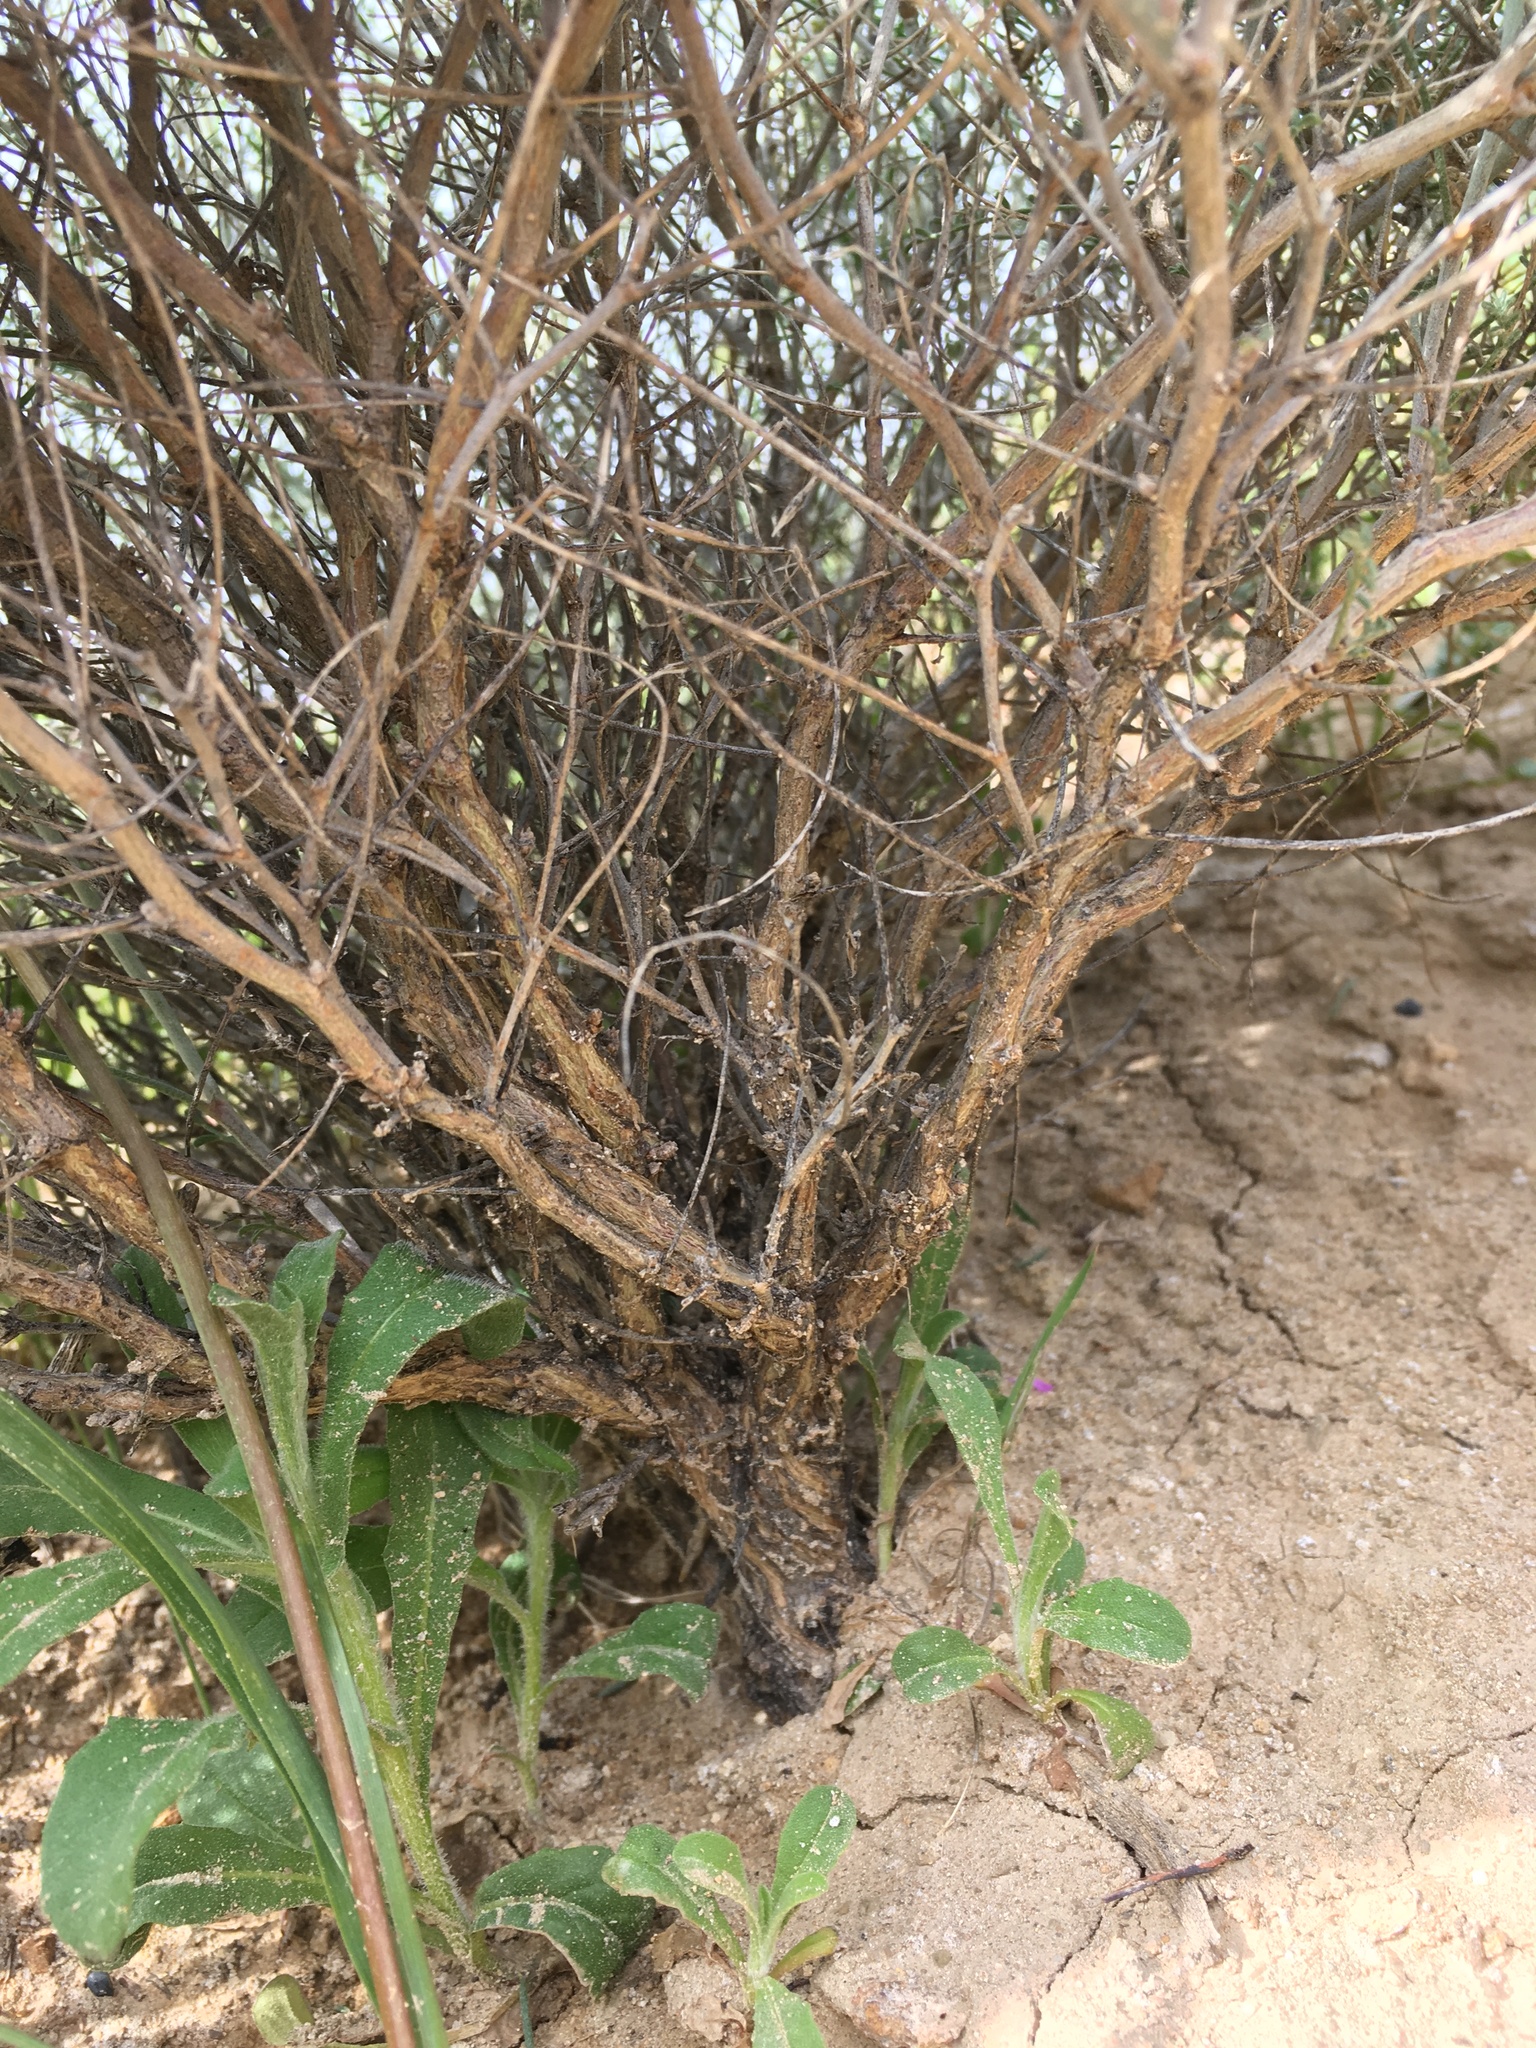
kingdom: Plantae
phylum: Tracheophyta
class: Magnoliopsida
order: Fabales
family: Fabaceae
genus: Astragalus
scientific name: Astragalus pachypus
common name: Thick-pod milkvetch
